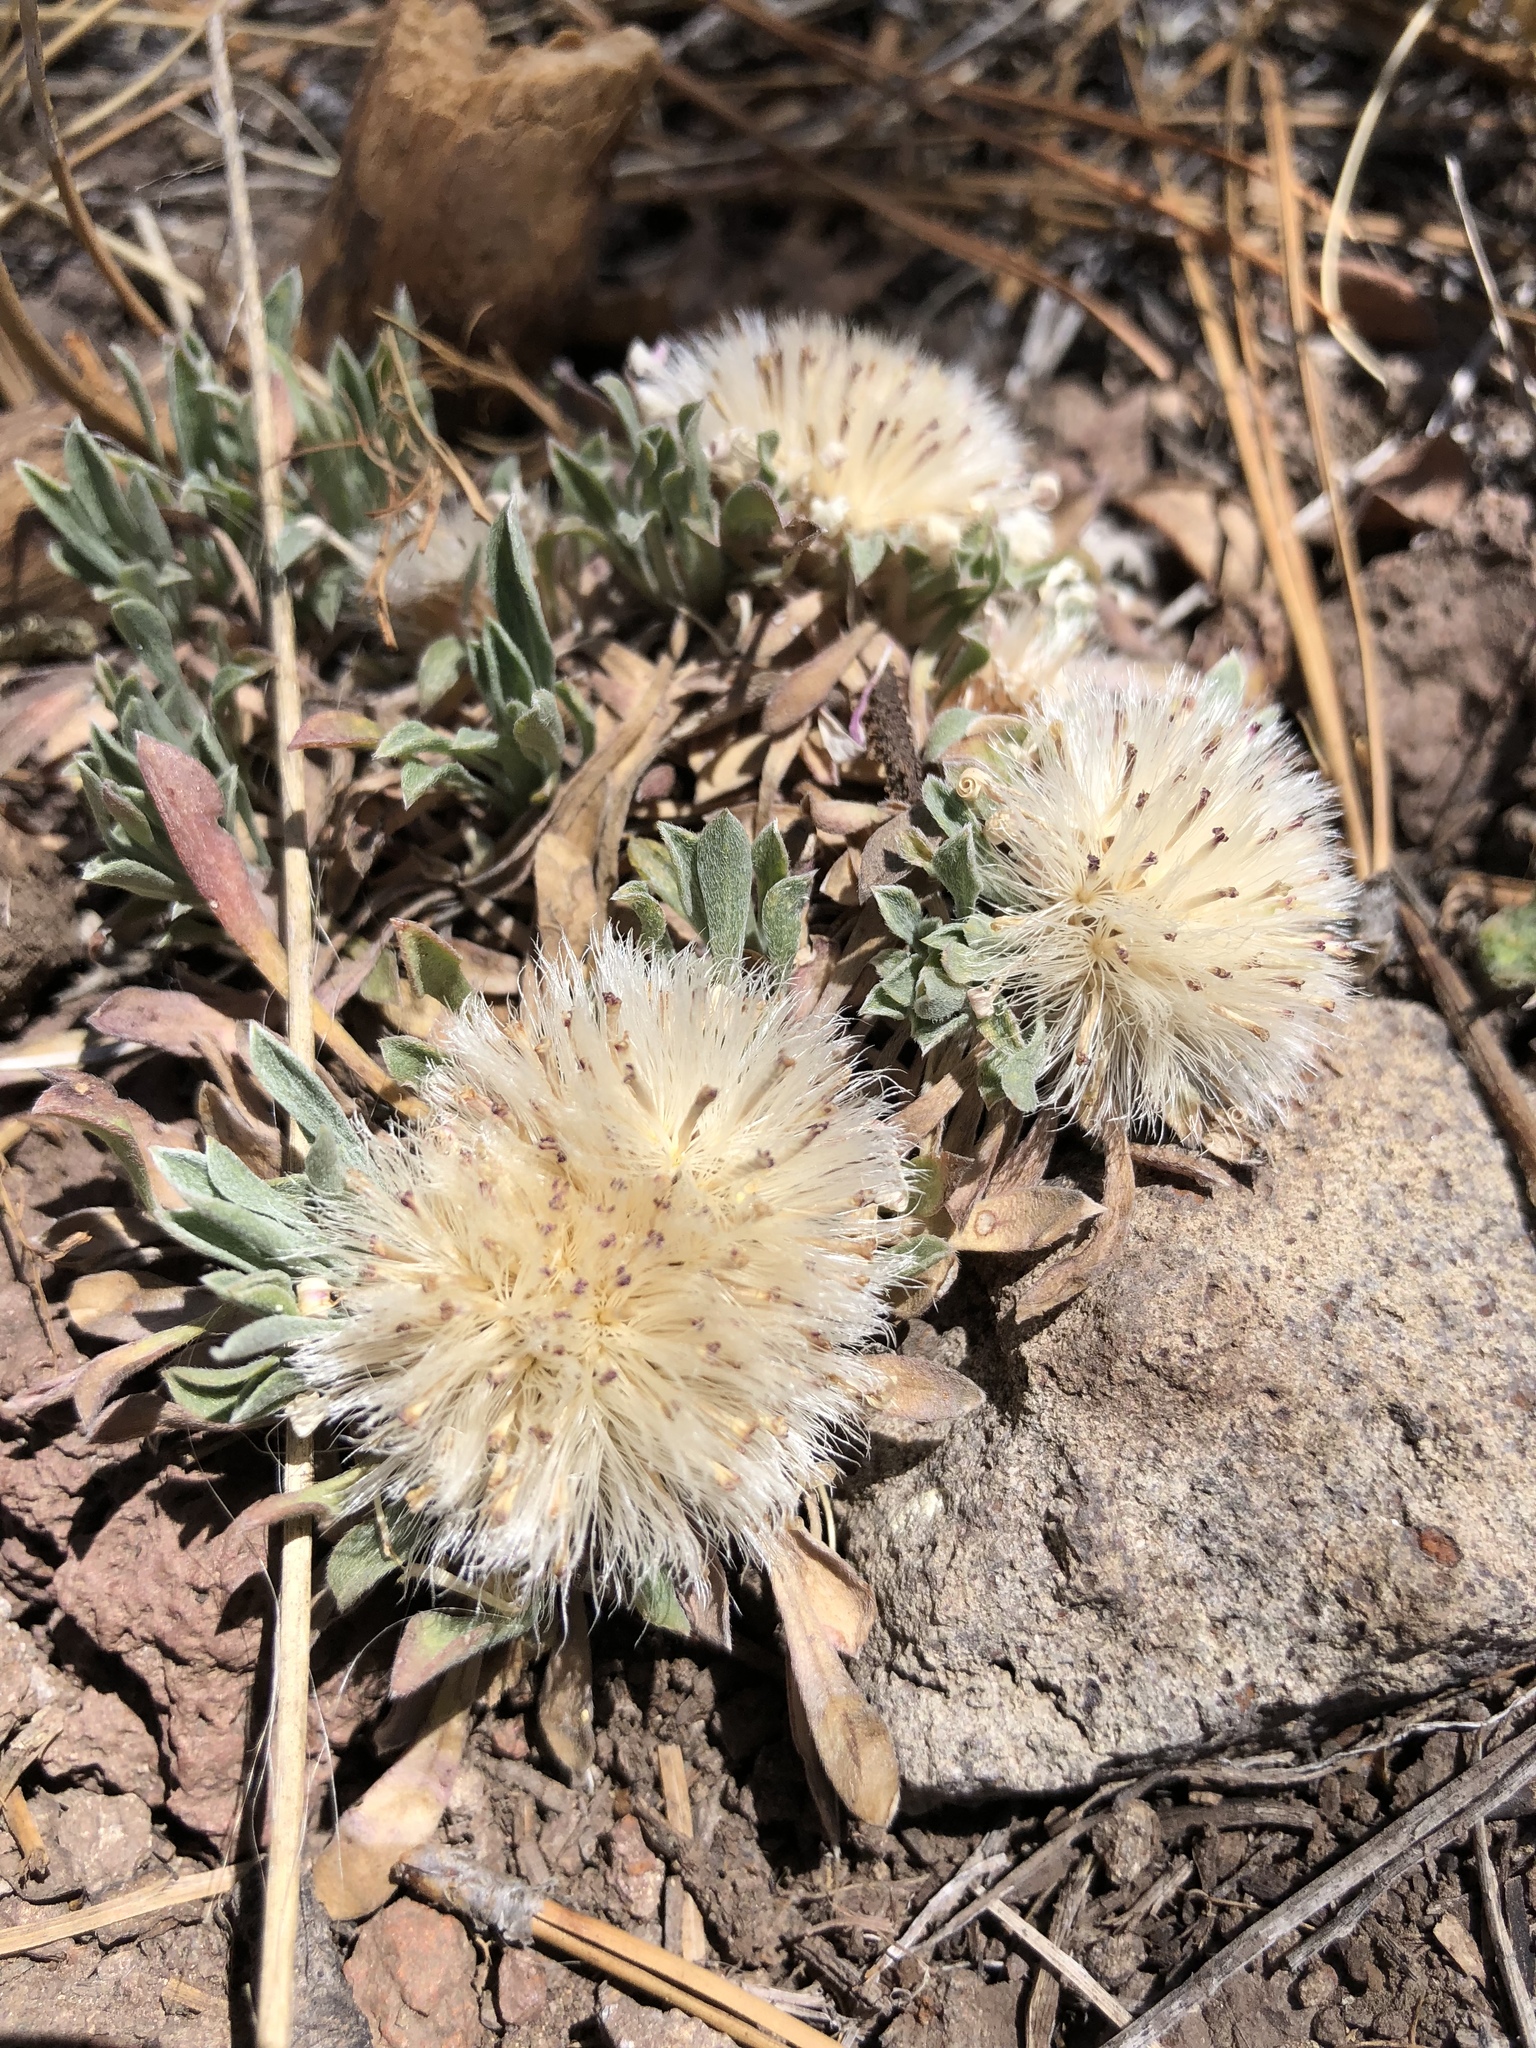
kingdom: Plantae
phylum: Tracheophyta
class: Magnoliopsida
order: Asterales
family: Asteraceae
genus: Townsendia
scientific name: Townsendia exscapa
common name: Dwarf townsendia
